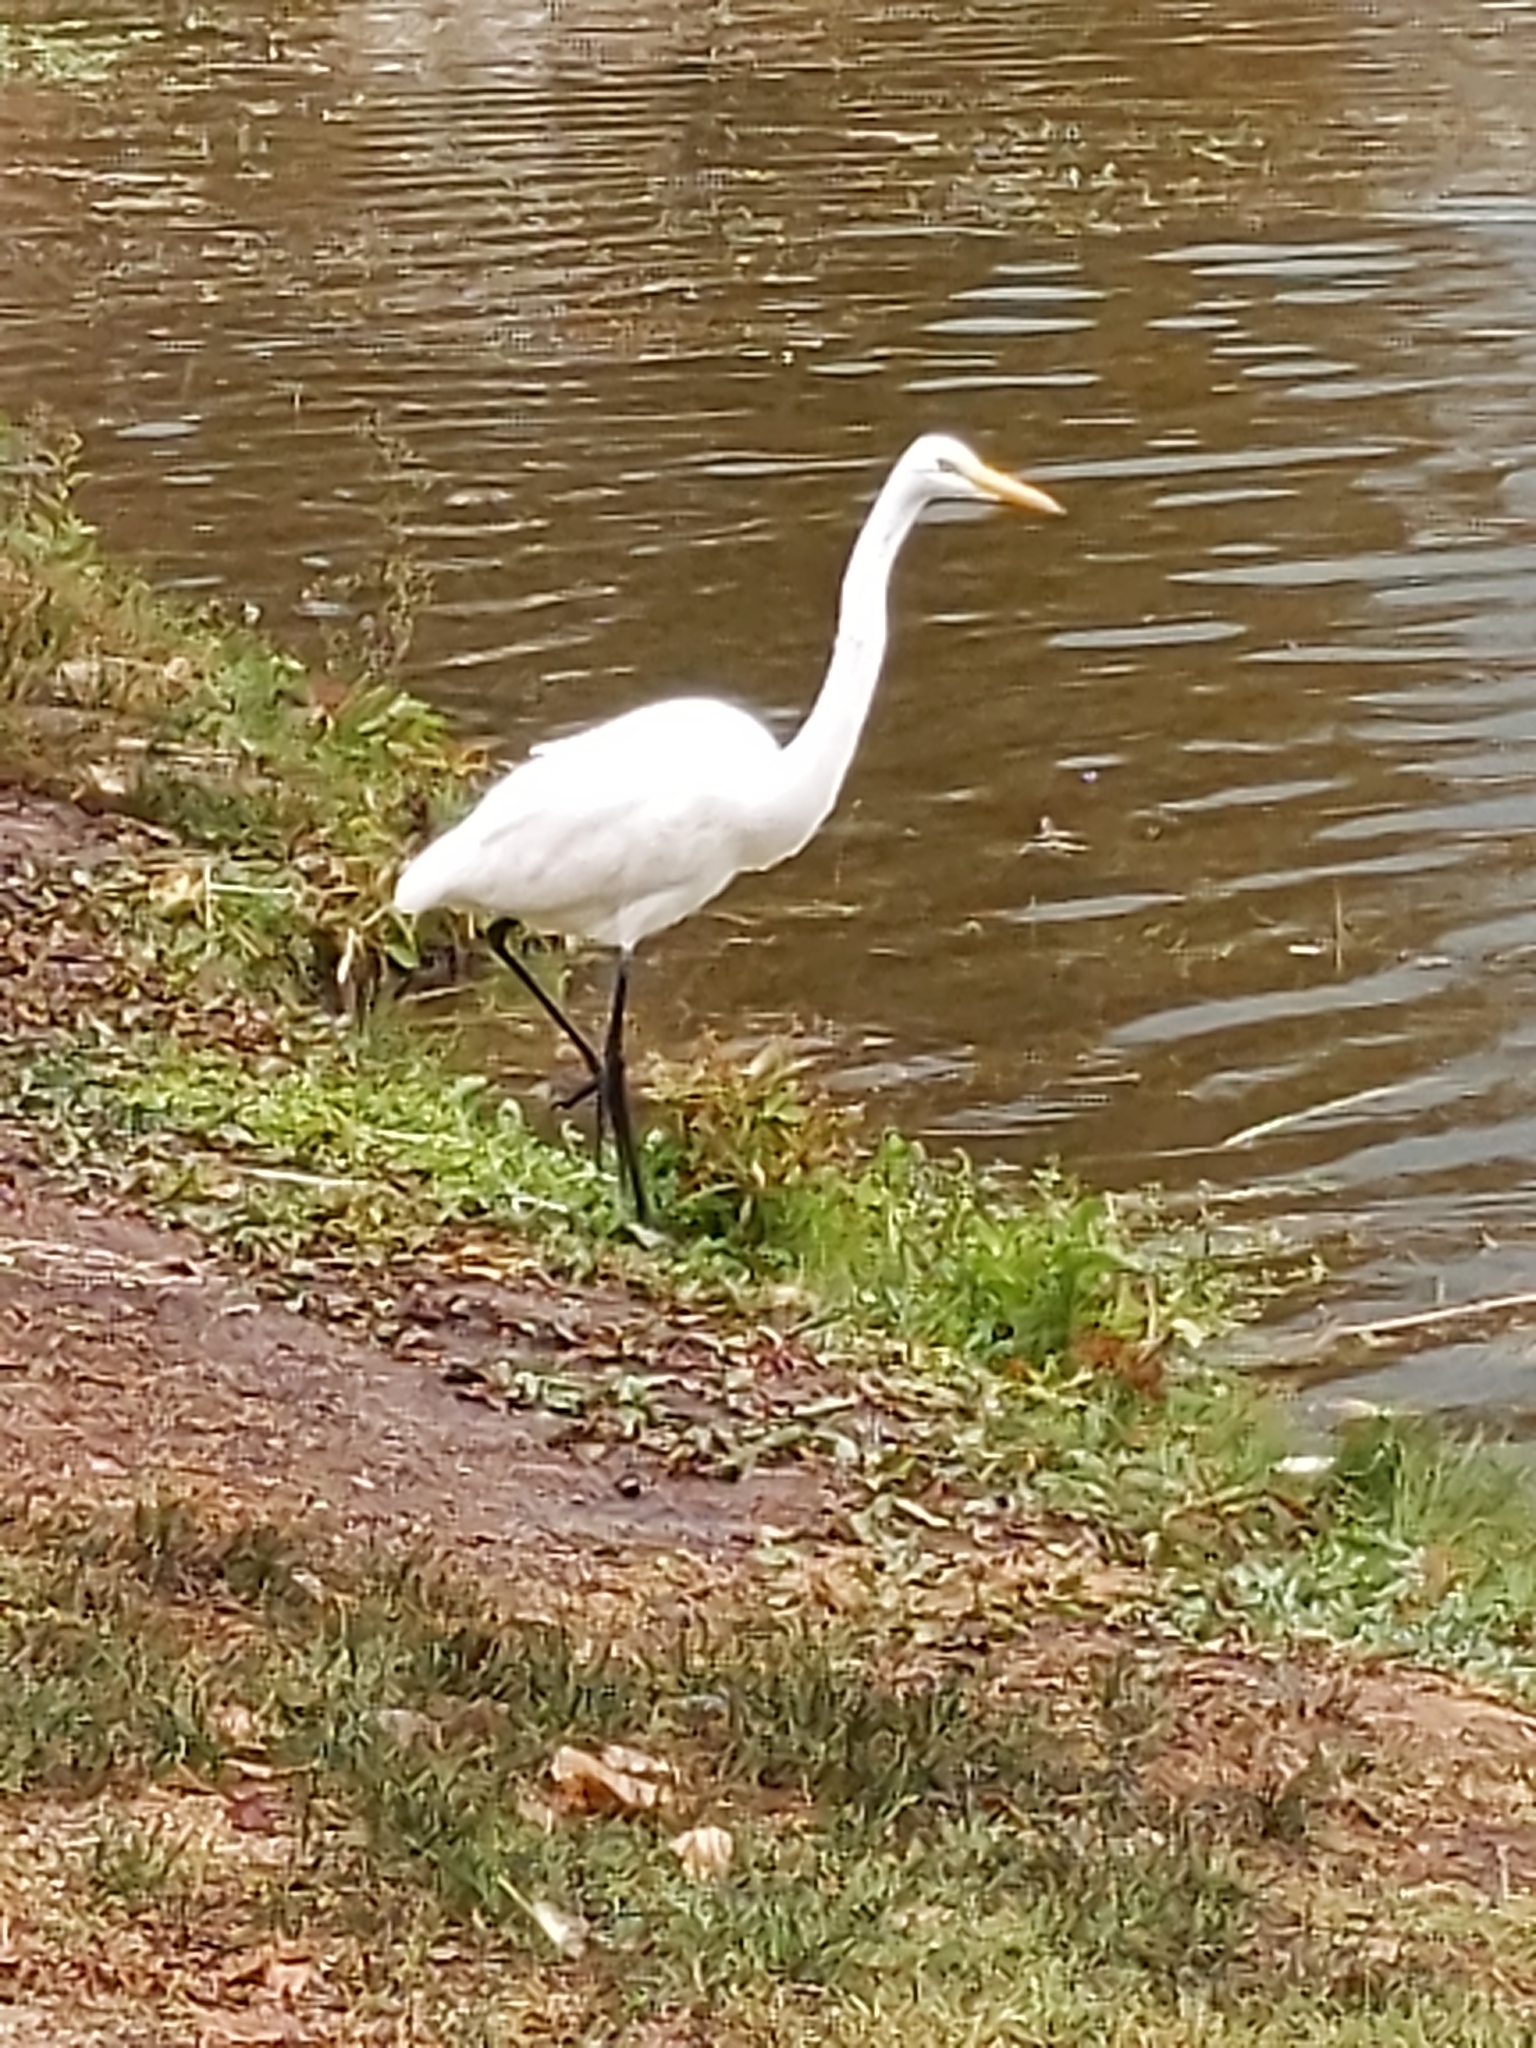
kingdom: Animalia
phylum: Chordata
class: Aves
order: Pelecaniformes
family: Ardeidae
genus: Ardea
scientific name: Ardea alba
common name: Great egret
